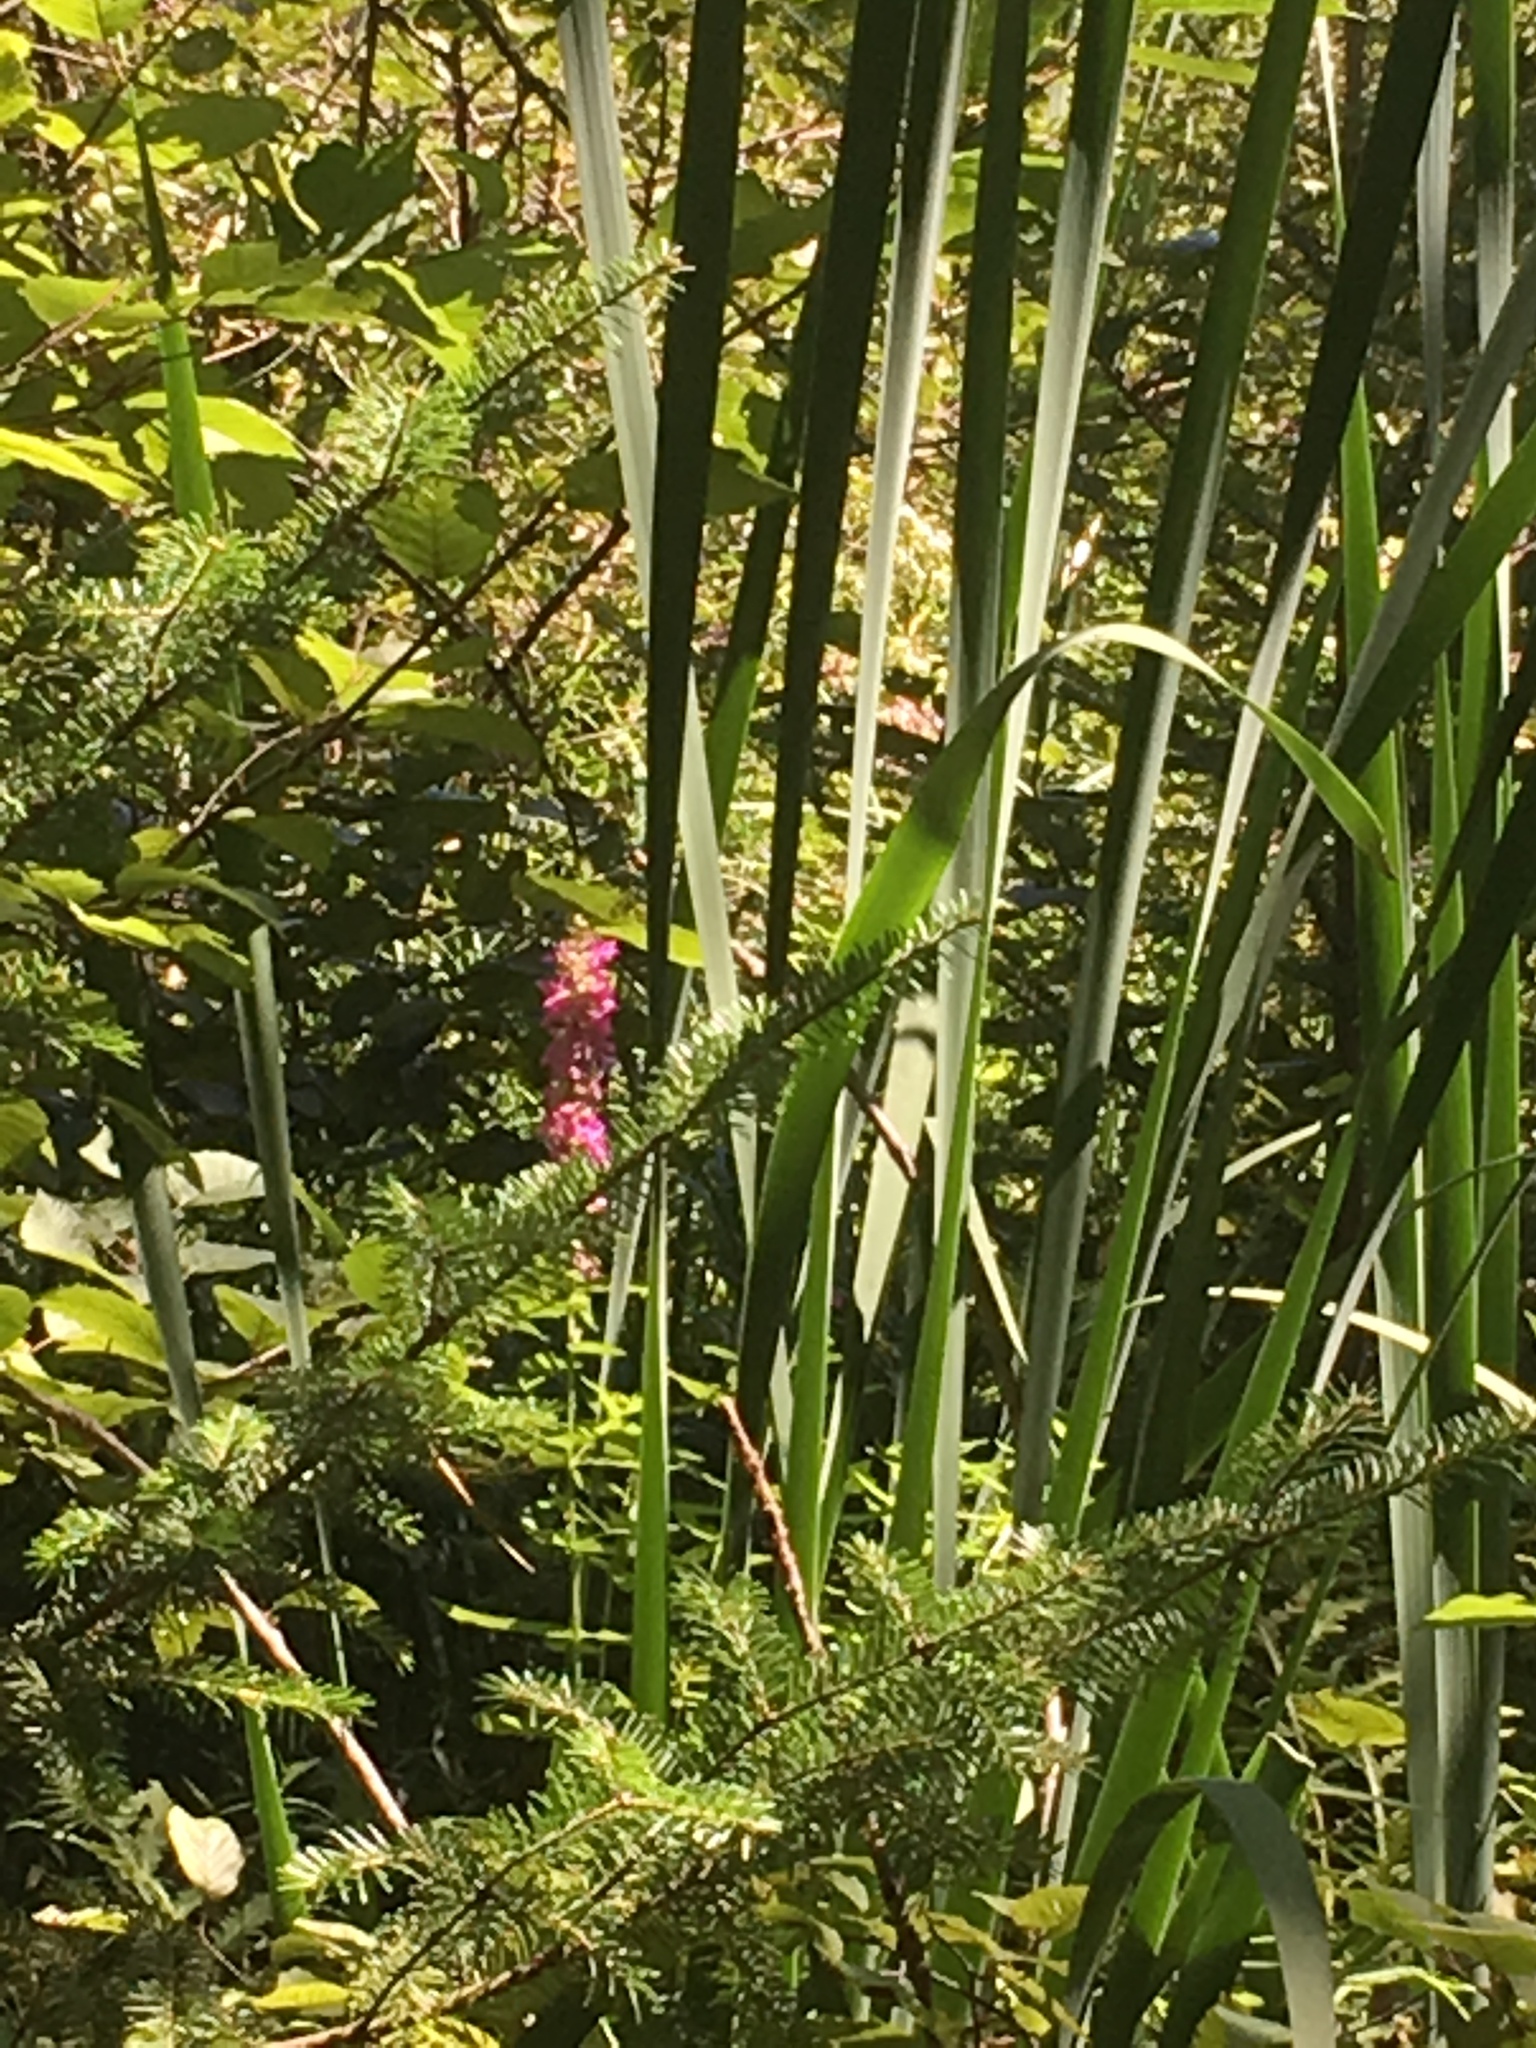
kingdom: Plantae
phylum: Tracheophyta
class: Magnoliopsida
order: Myrtales
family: Lythraceae
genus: Lythrum
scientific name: Lythrum salicaria
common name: Purple loosestrife
